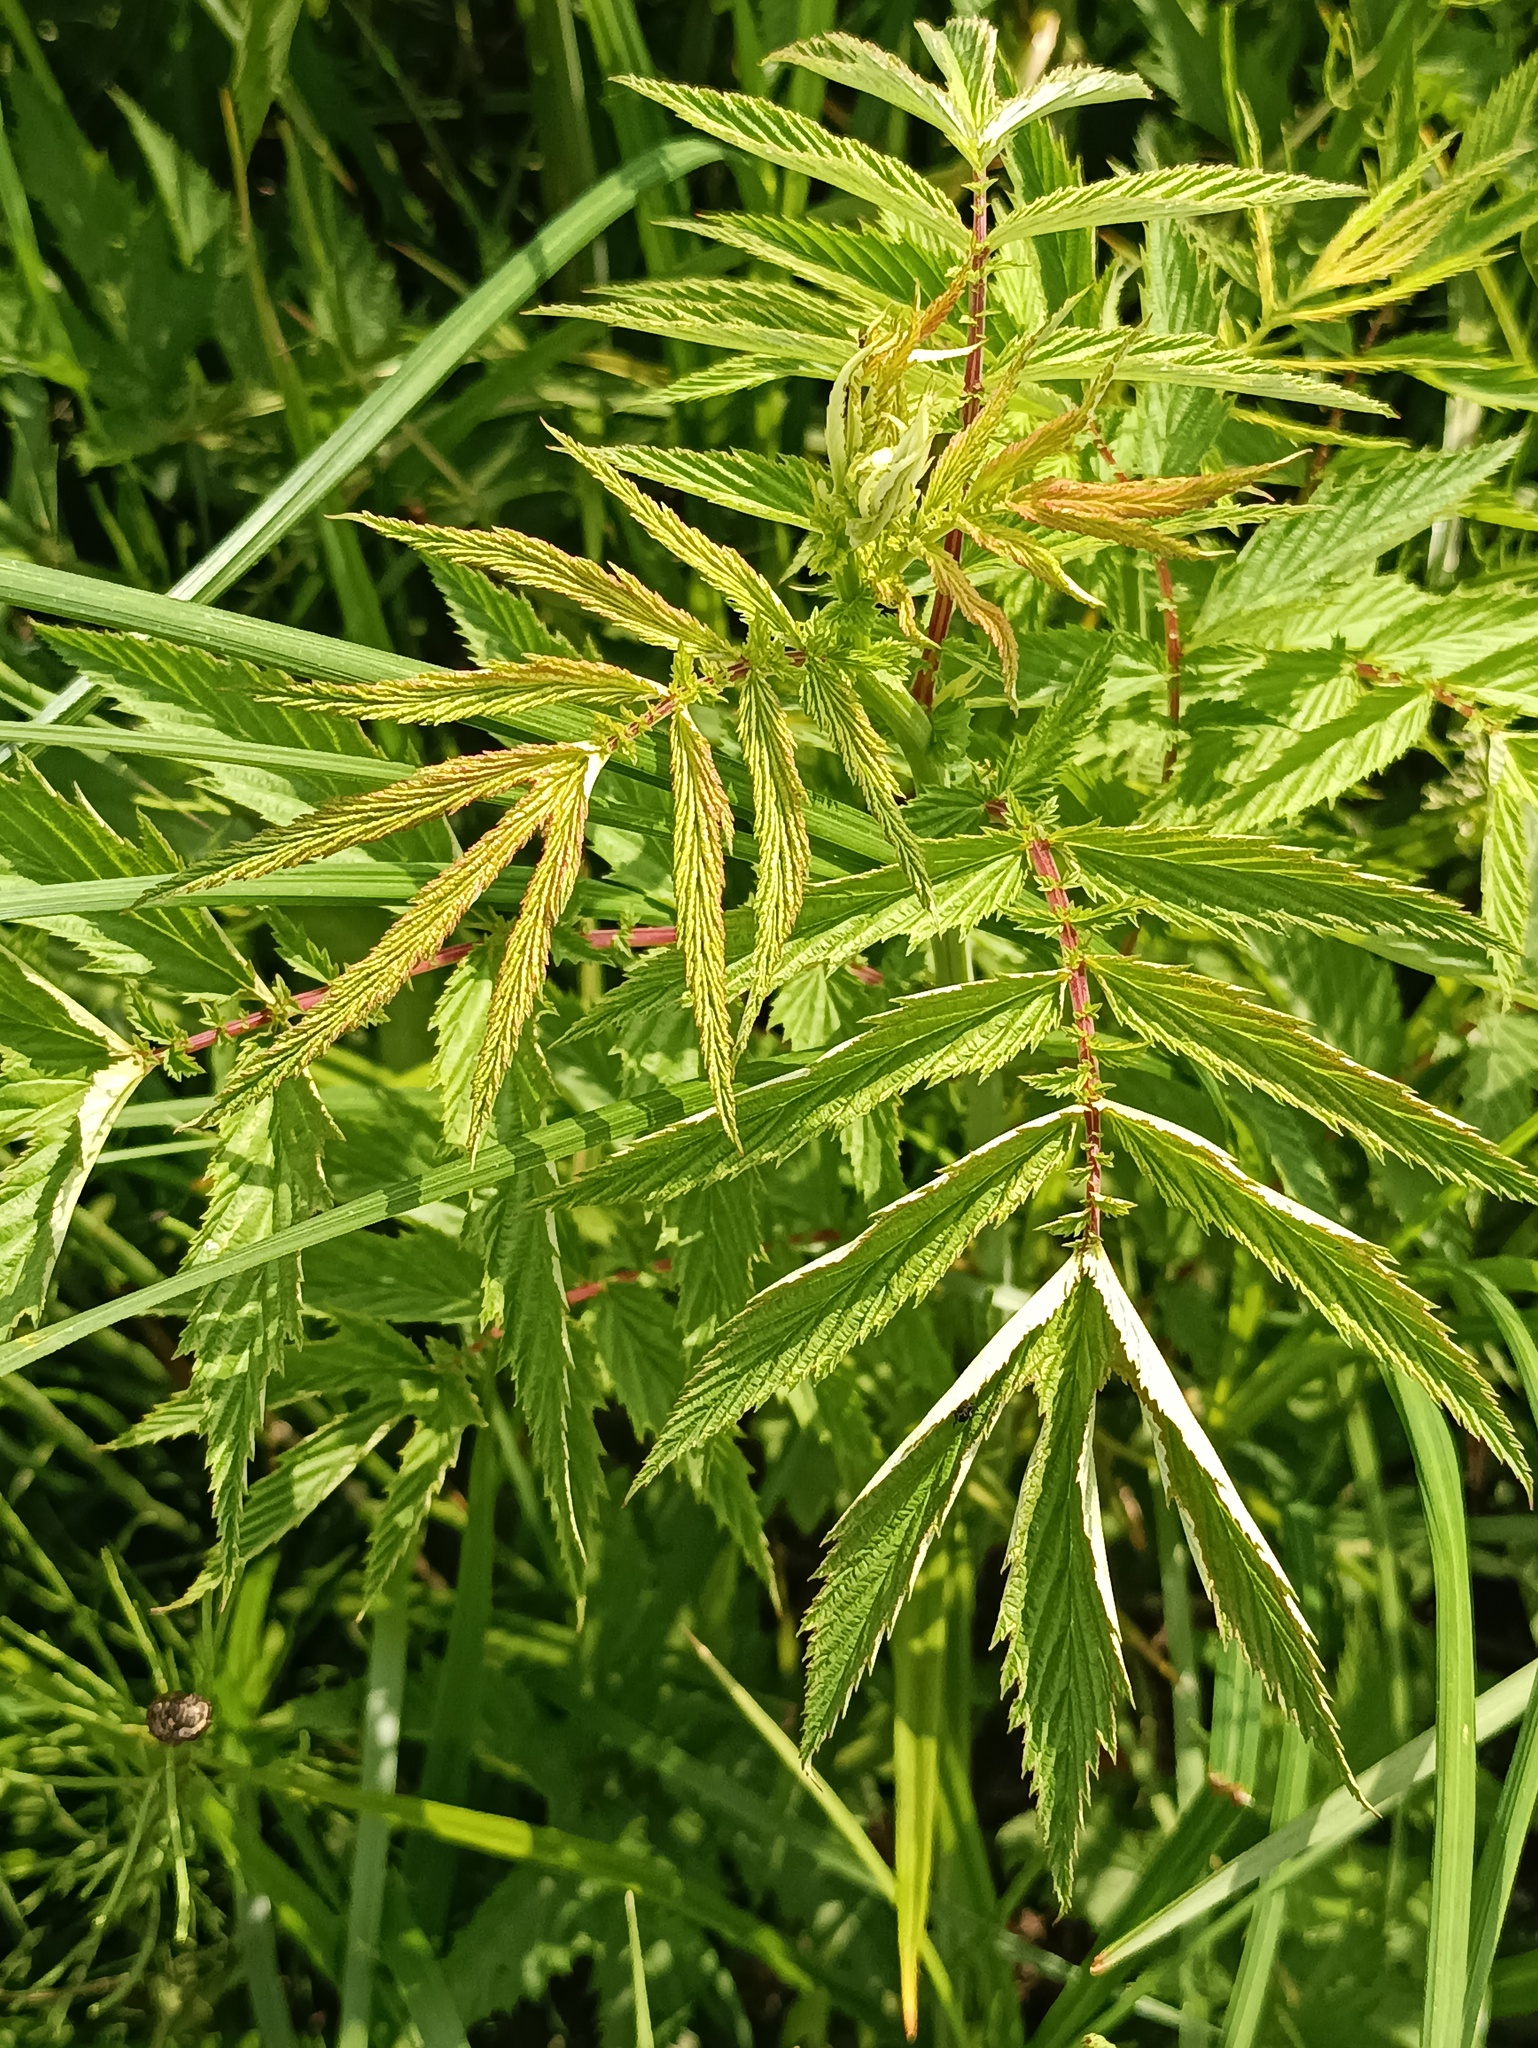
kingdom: Plantae
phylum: Tracheophyta
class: Magnoliopsida
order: Rosales
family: Rosaceae
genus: Filipendula
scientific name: Filipendula ulmaria
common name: Meadowsweet
